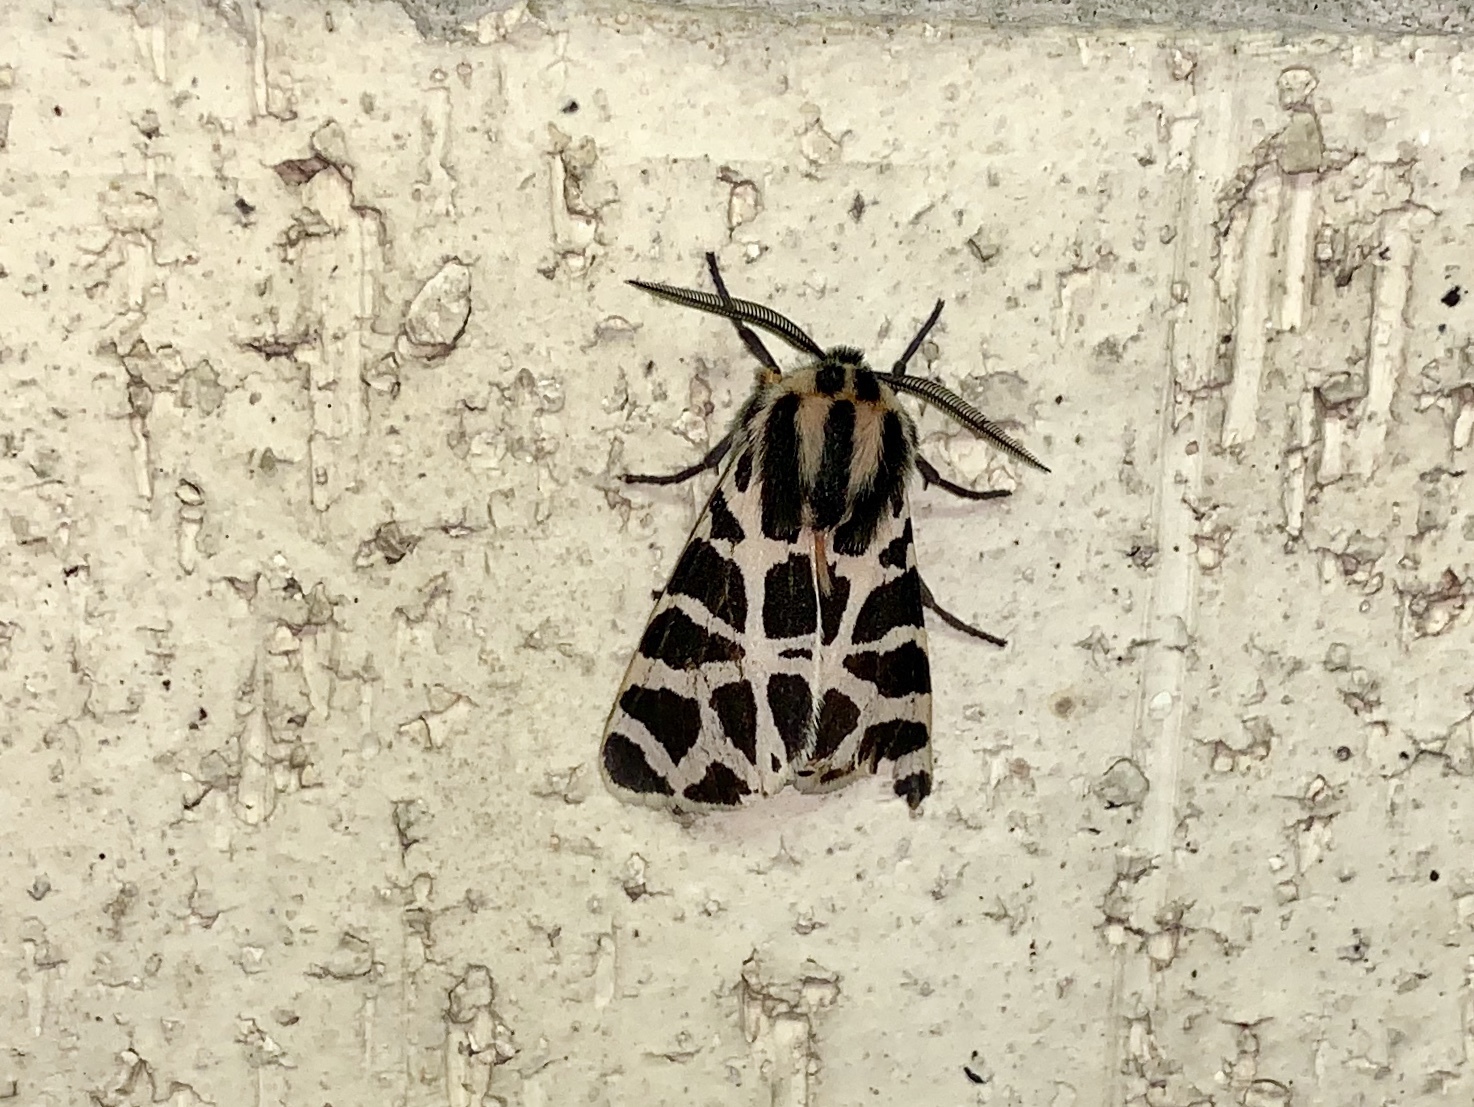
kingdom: Animalia
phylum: Arthropoda
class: Insecta
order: Lepidoptera
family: Erebidae
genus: Apantesis
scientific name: Apantesis incorrupta
